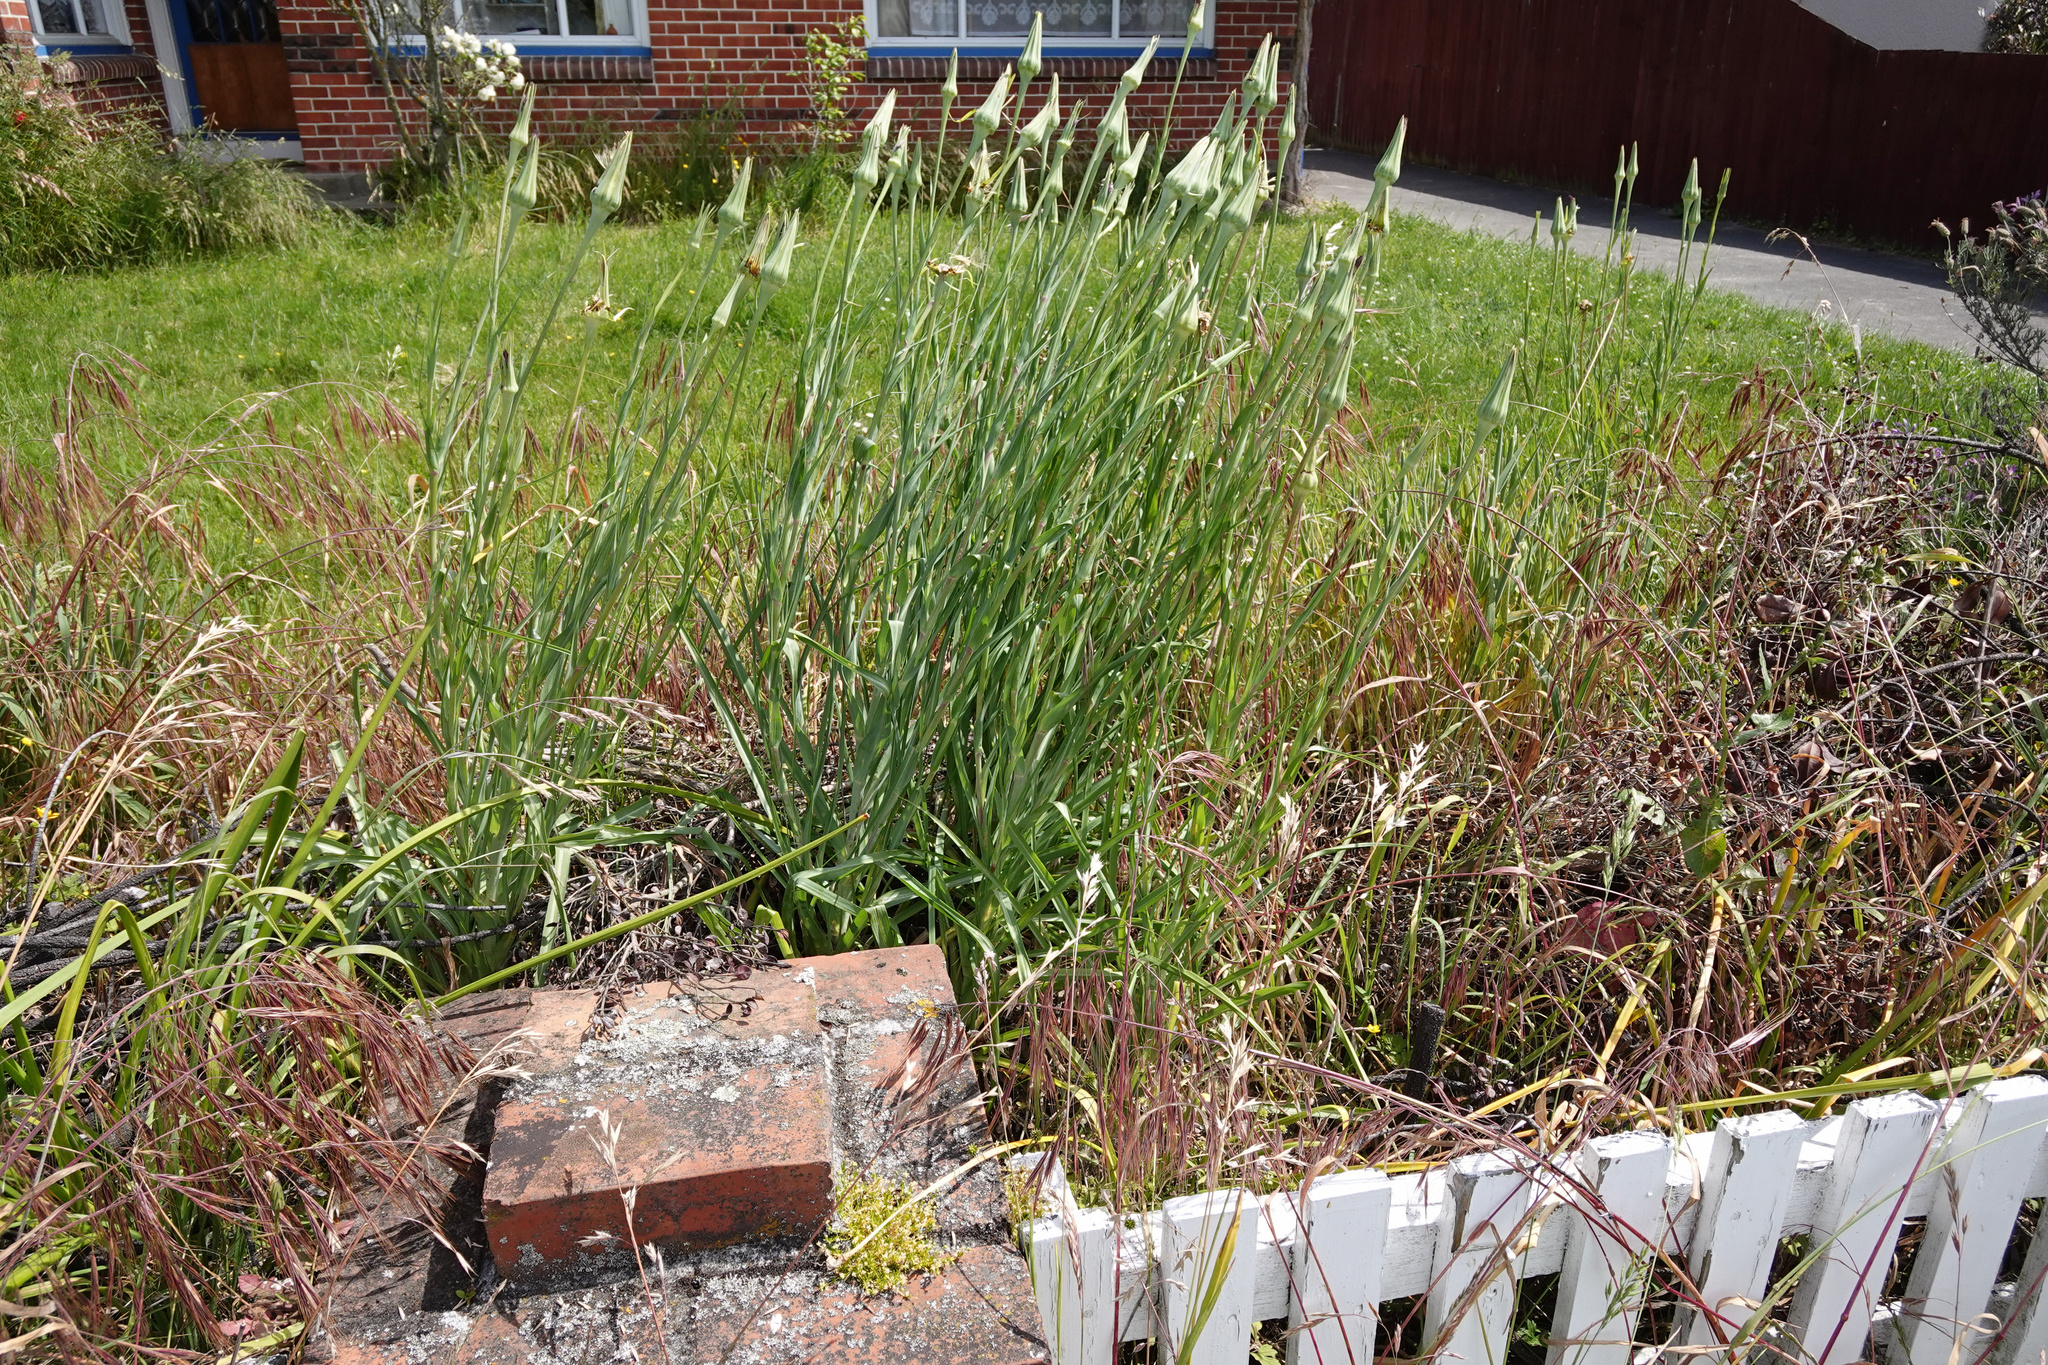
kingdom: Plantae
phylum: Tracheophyta
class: Magnoliopsida
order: Asterales
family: Asteraceae
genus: Tragopogon
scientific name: Tragopogon porrifolius
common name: Salsify
